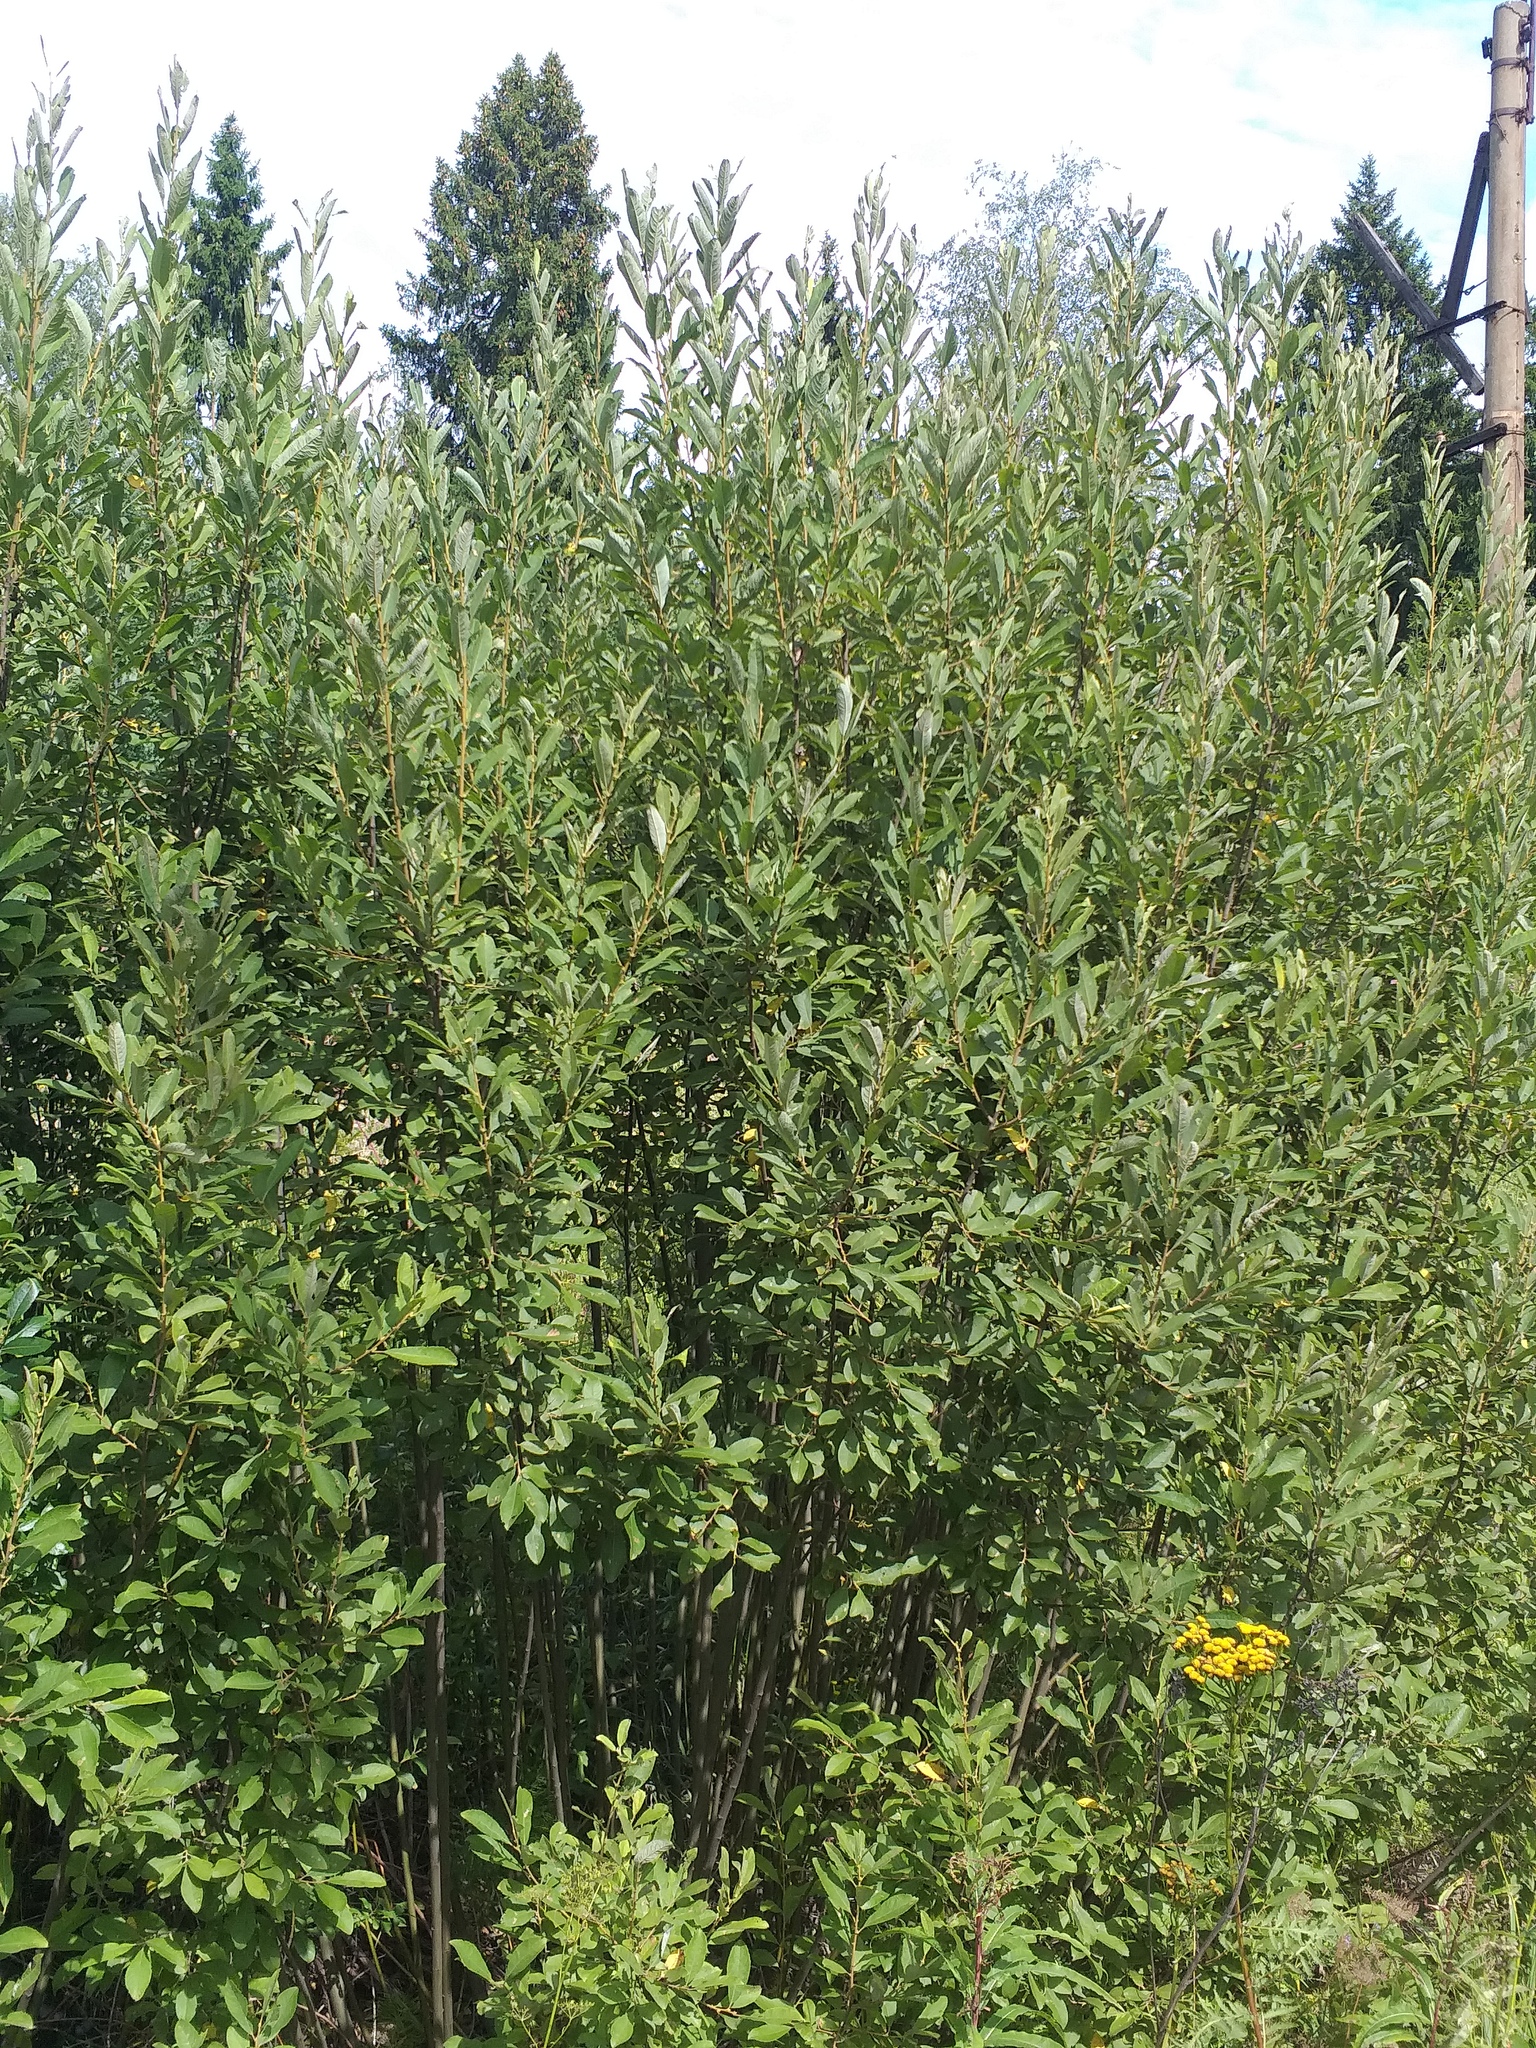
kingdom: Plantae
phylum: Tracheophyta
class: Magnoliopsida
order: Malpighiales
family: Salicaceae
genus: Salix
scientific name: Salix cinerea
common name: Common sallow
